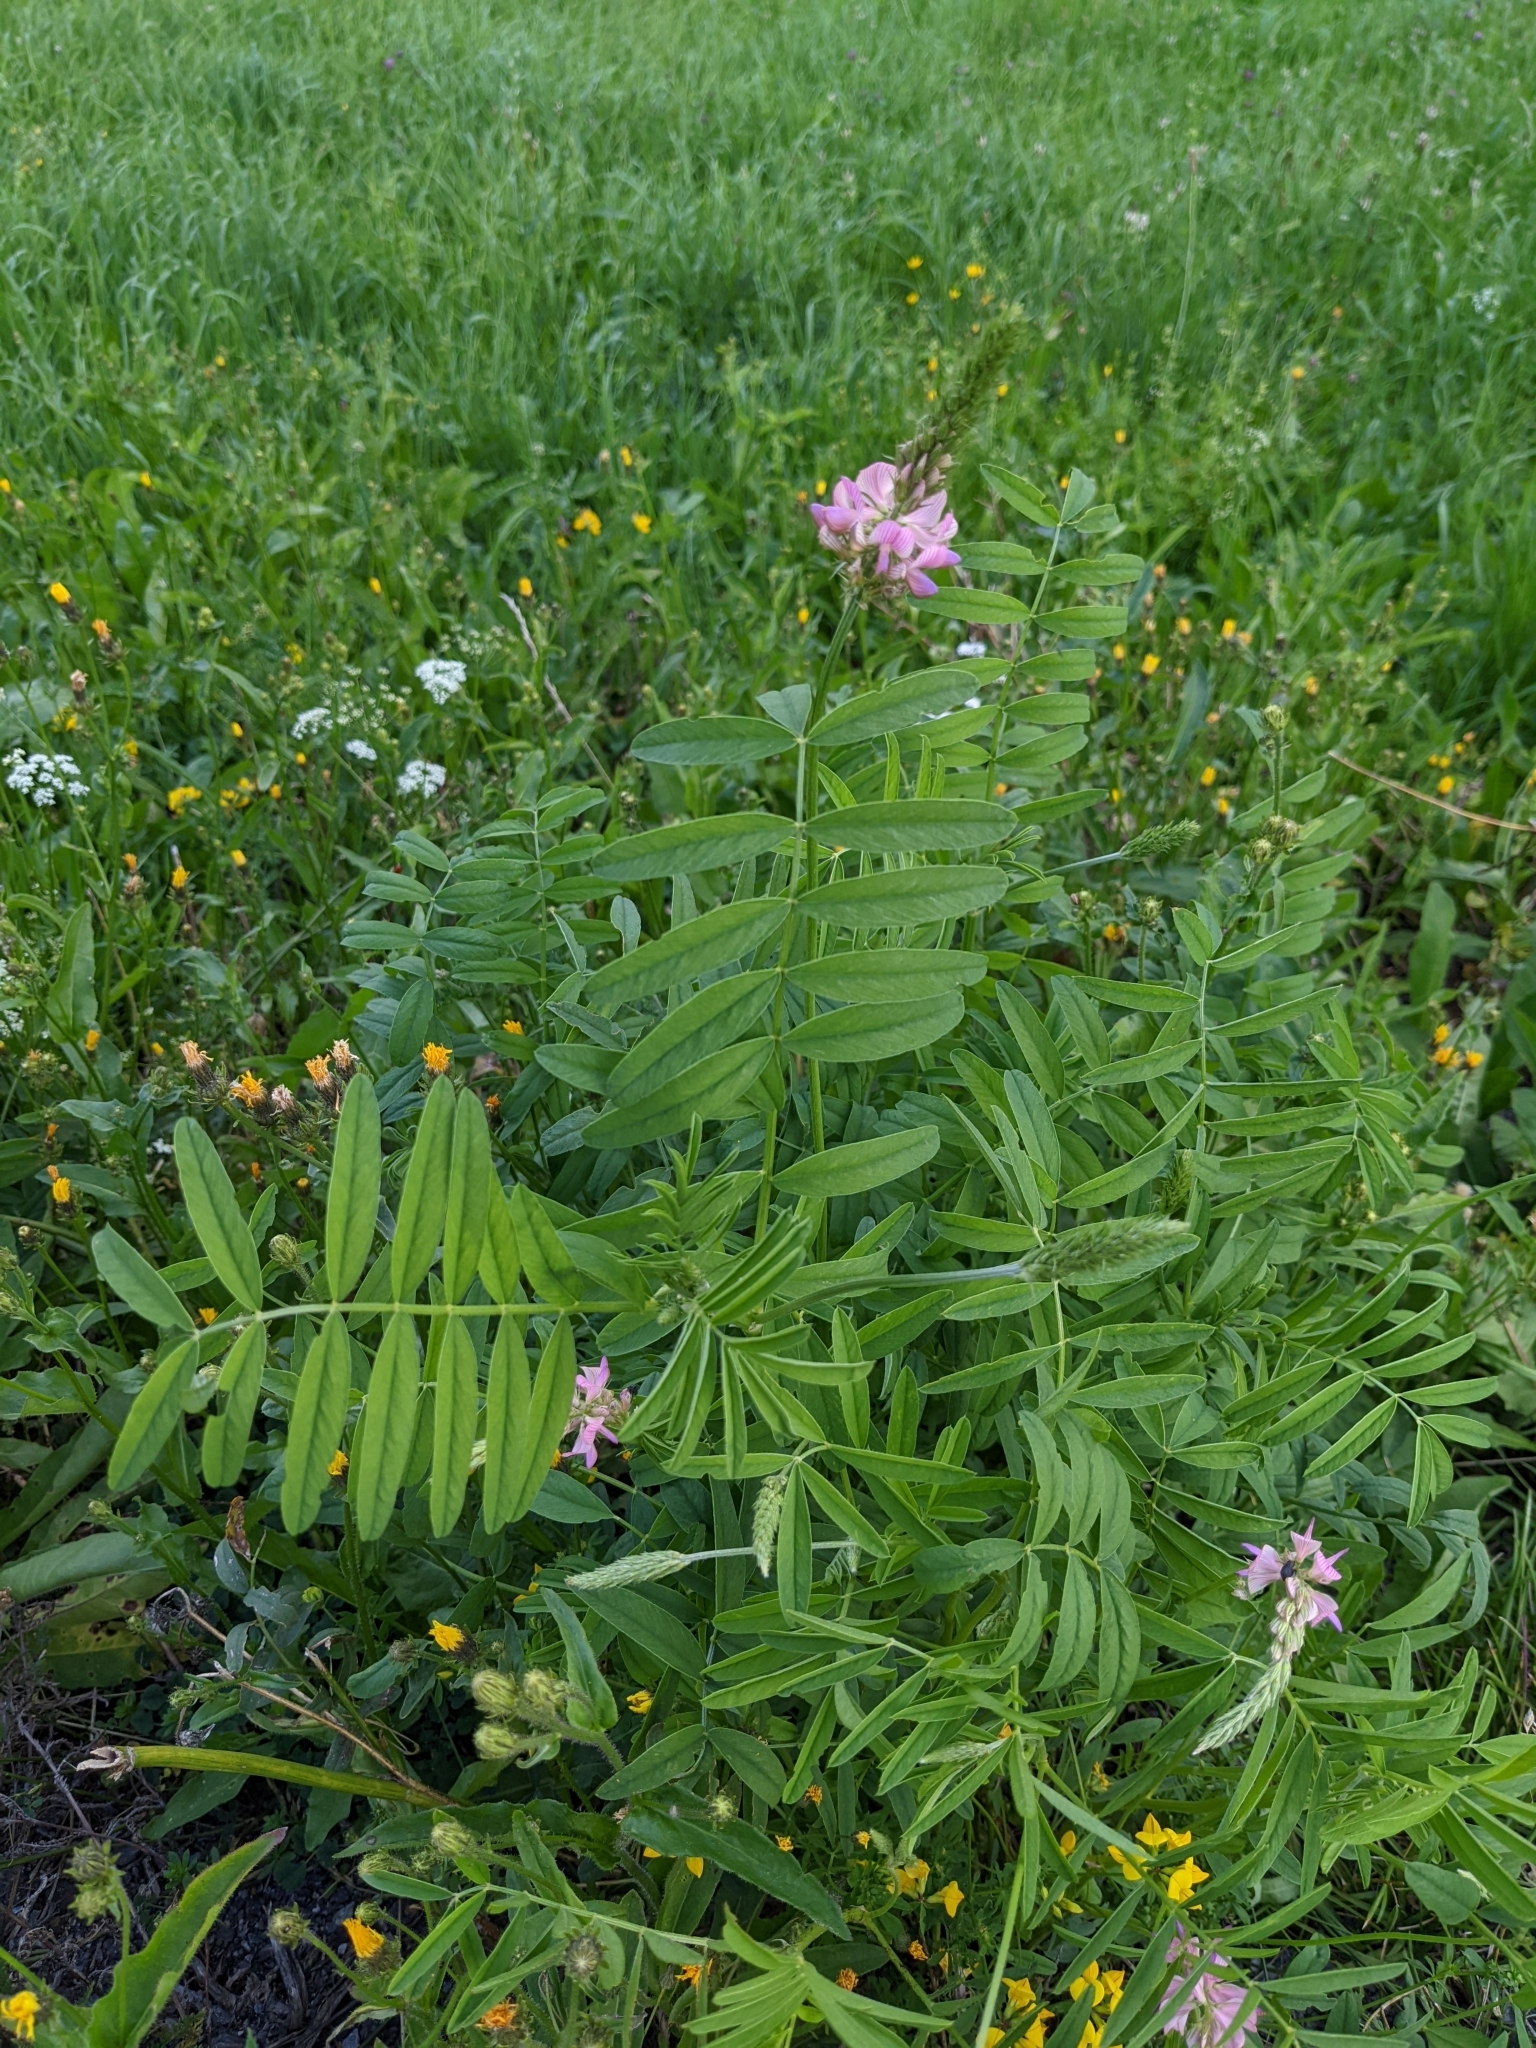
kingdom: Plantae
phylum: Tracheophyta
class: Magnoliopsida
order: Fabales
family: Fabaceae
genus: Onobrychis
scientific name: Onobrychis viciifolia
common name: Sainfoin
